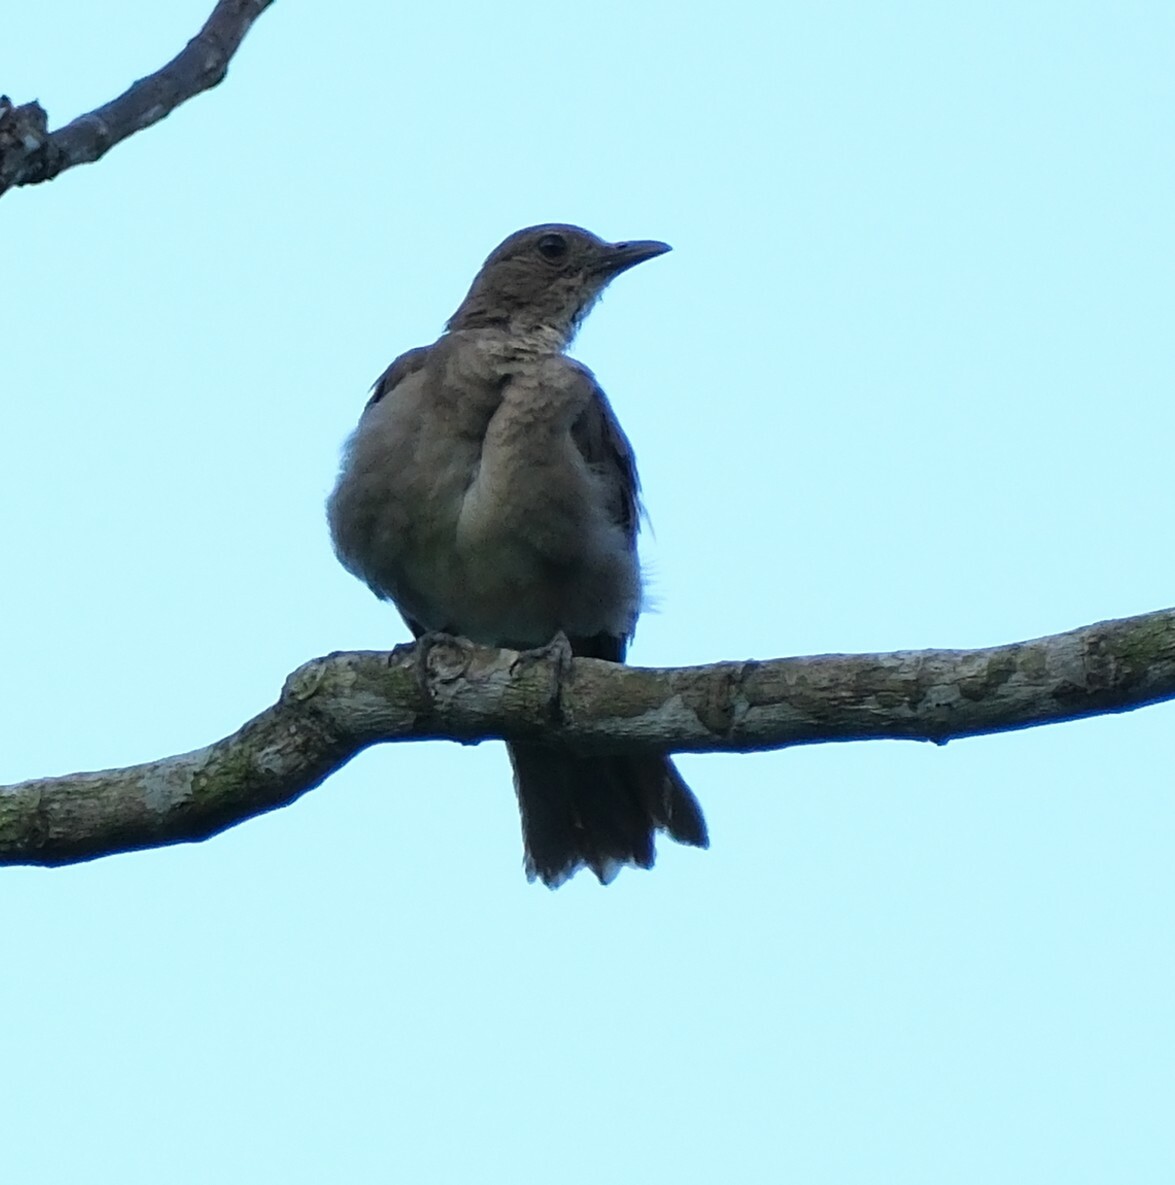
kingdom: Animalia
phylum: Chordata
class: Aves
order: Passeriformes
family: Turdidae
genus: Turdus
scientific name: Turdus ignobilis
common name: Black-billed thrush
